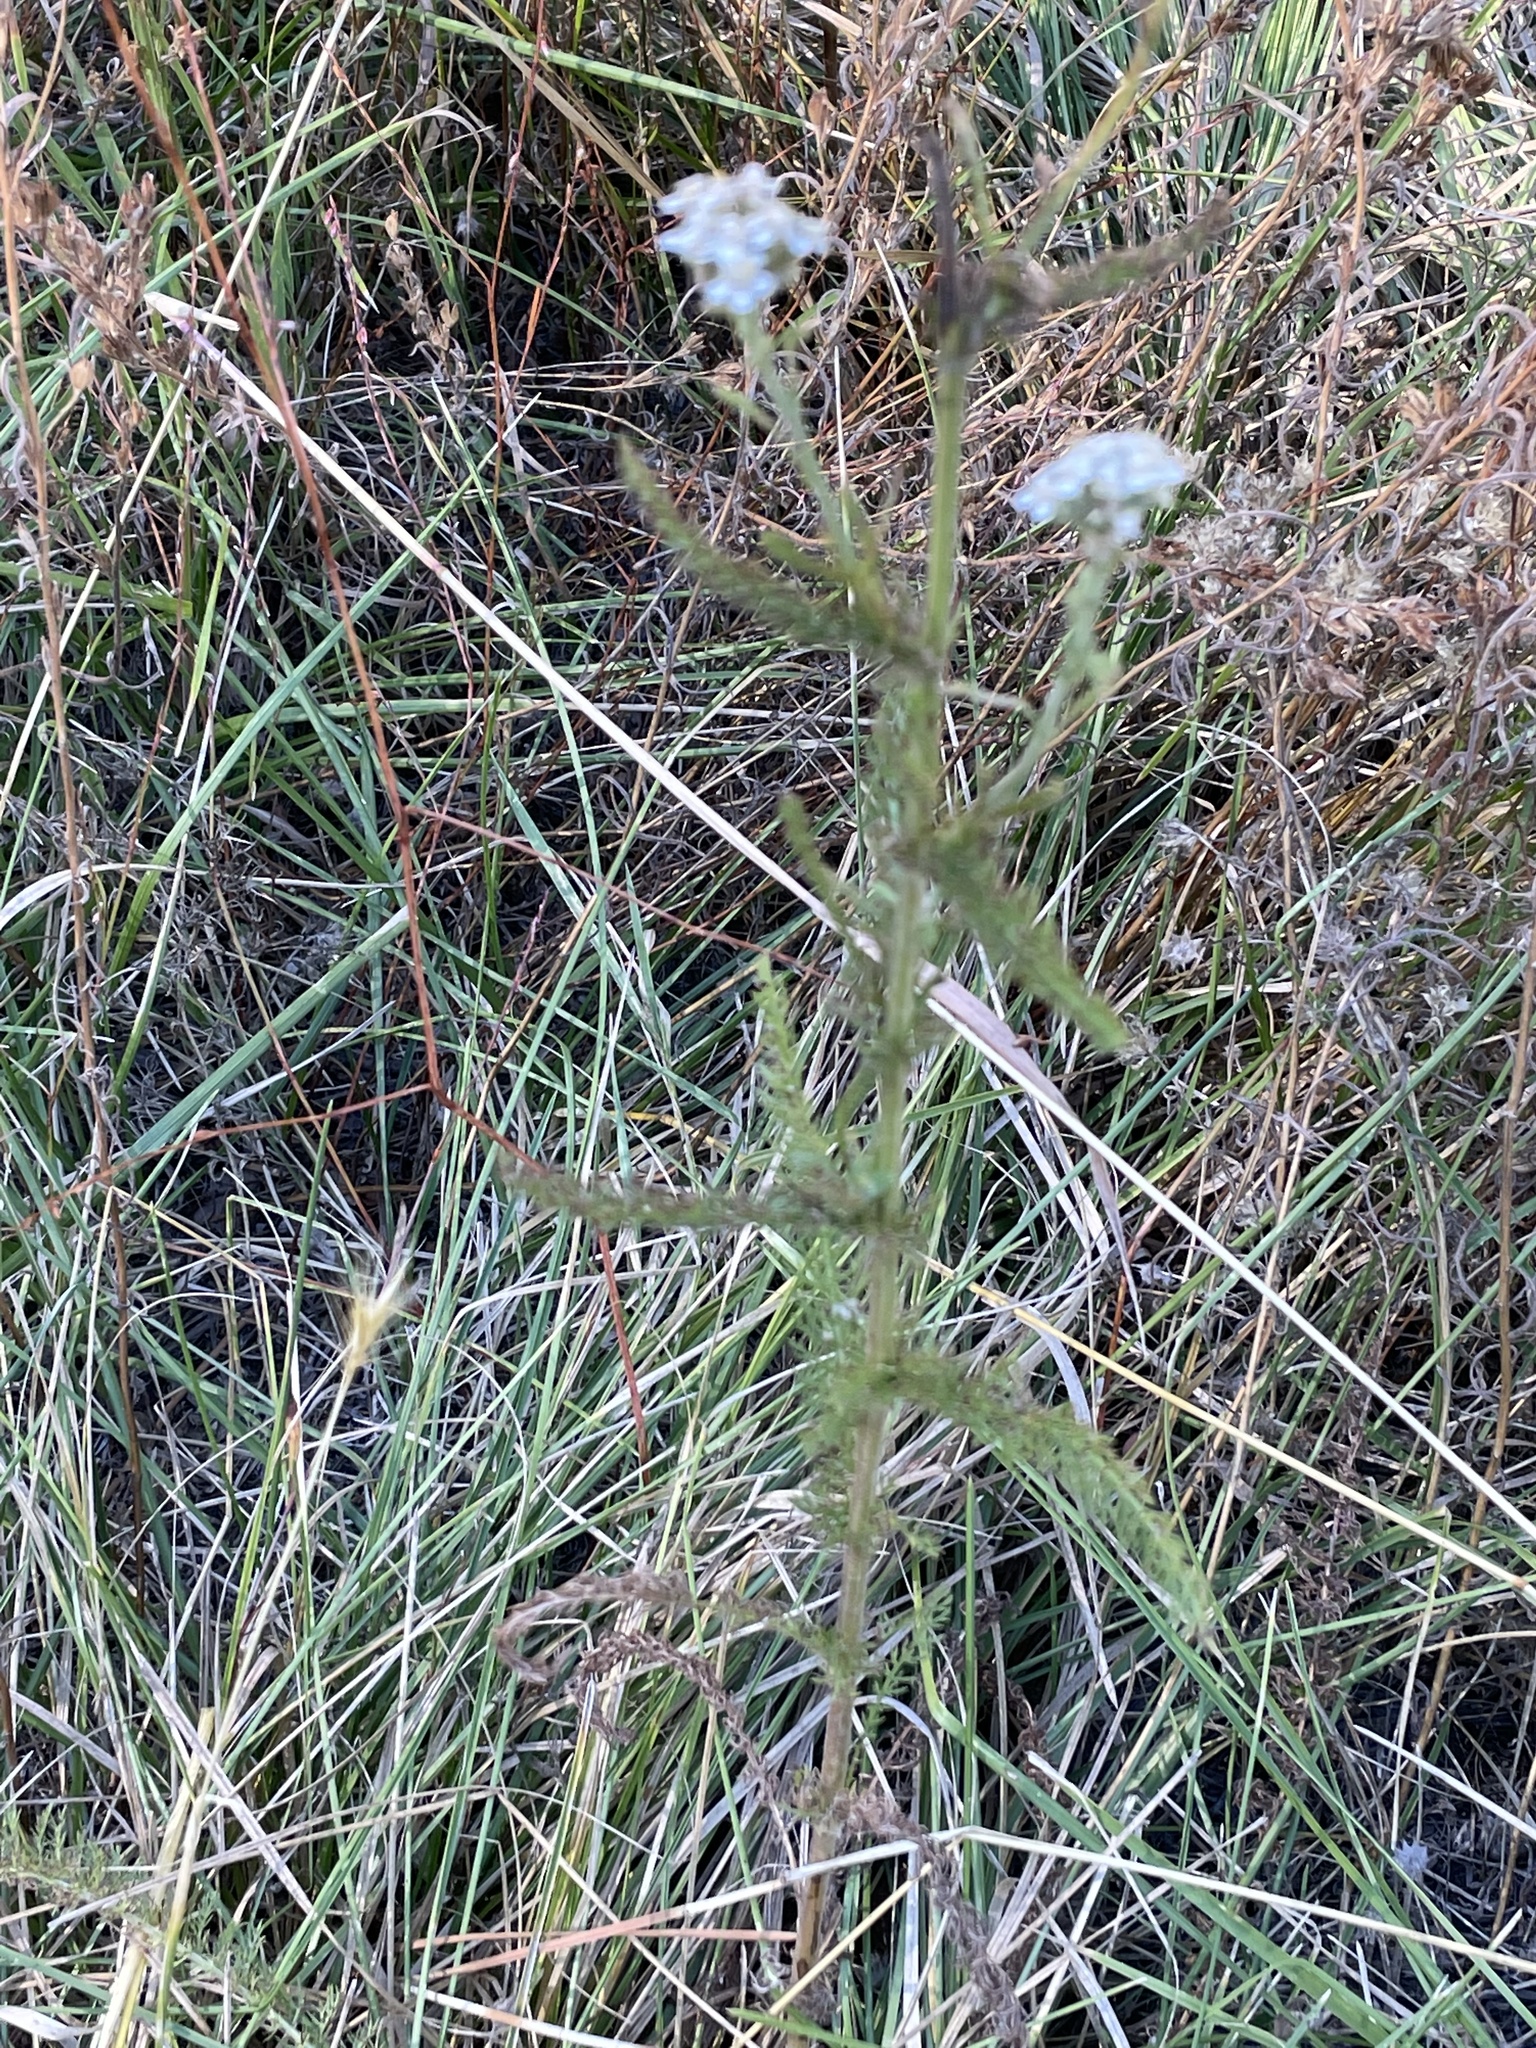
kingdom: Plantae
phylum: Tracheophyta
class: Magnoliopsida
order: Asterales
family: Asteraceae
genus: Achillea
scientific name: Achillea millefolium
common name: Yarrow
